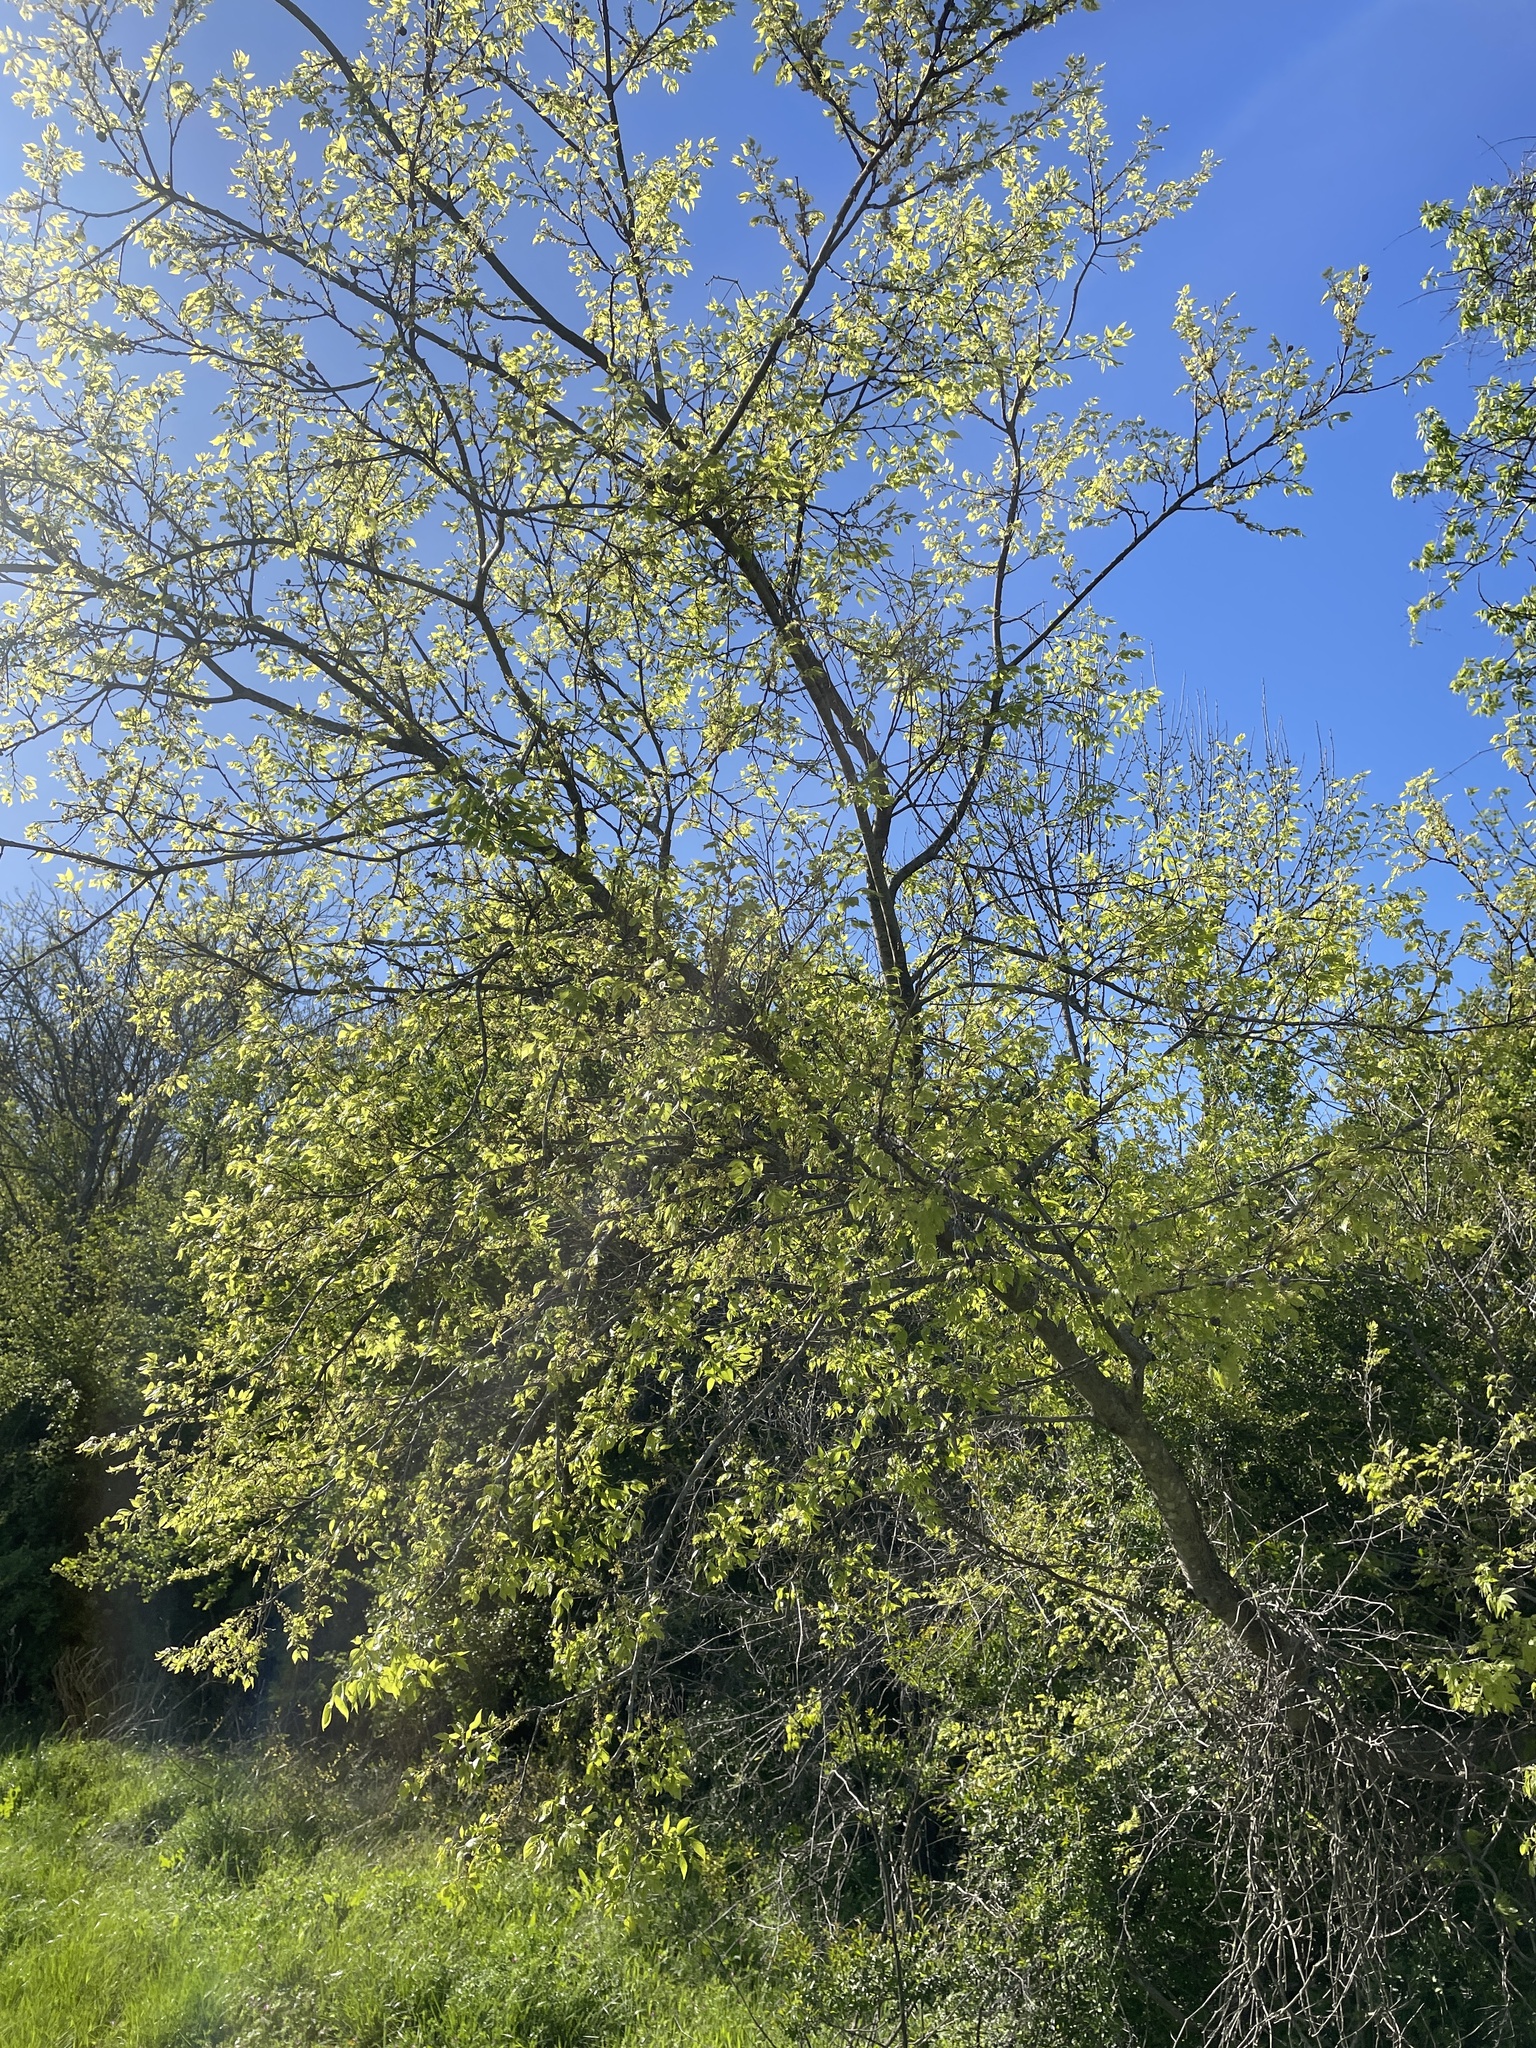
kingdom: Plantae
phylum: Tracheophyta
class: Magnoliopsida
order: Rosales
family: Cannabaceae
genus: Celtis
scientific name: Celtis laevigata
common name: Sugarberry
